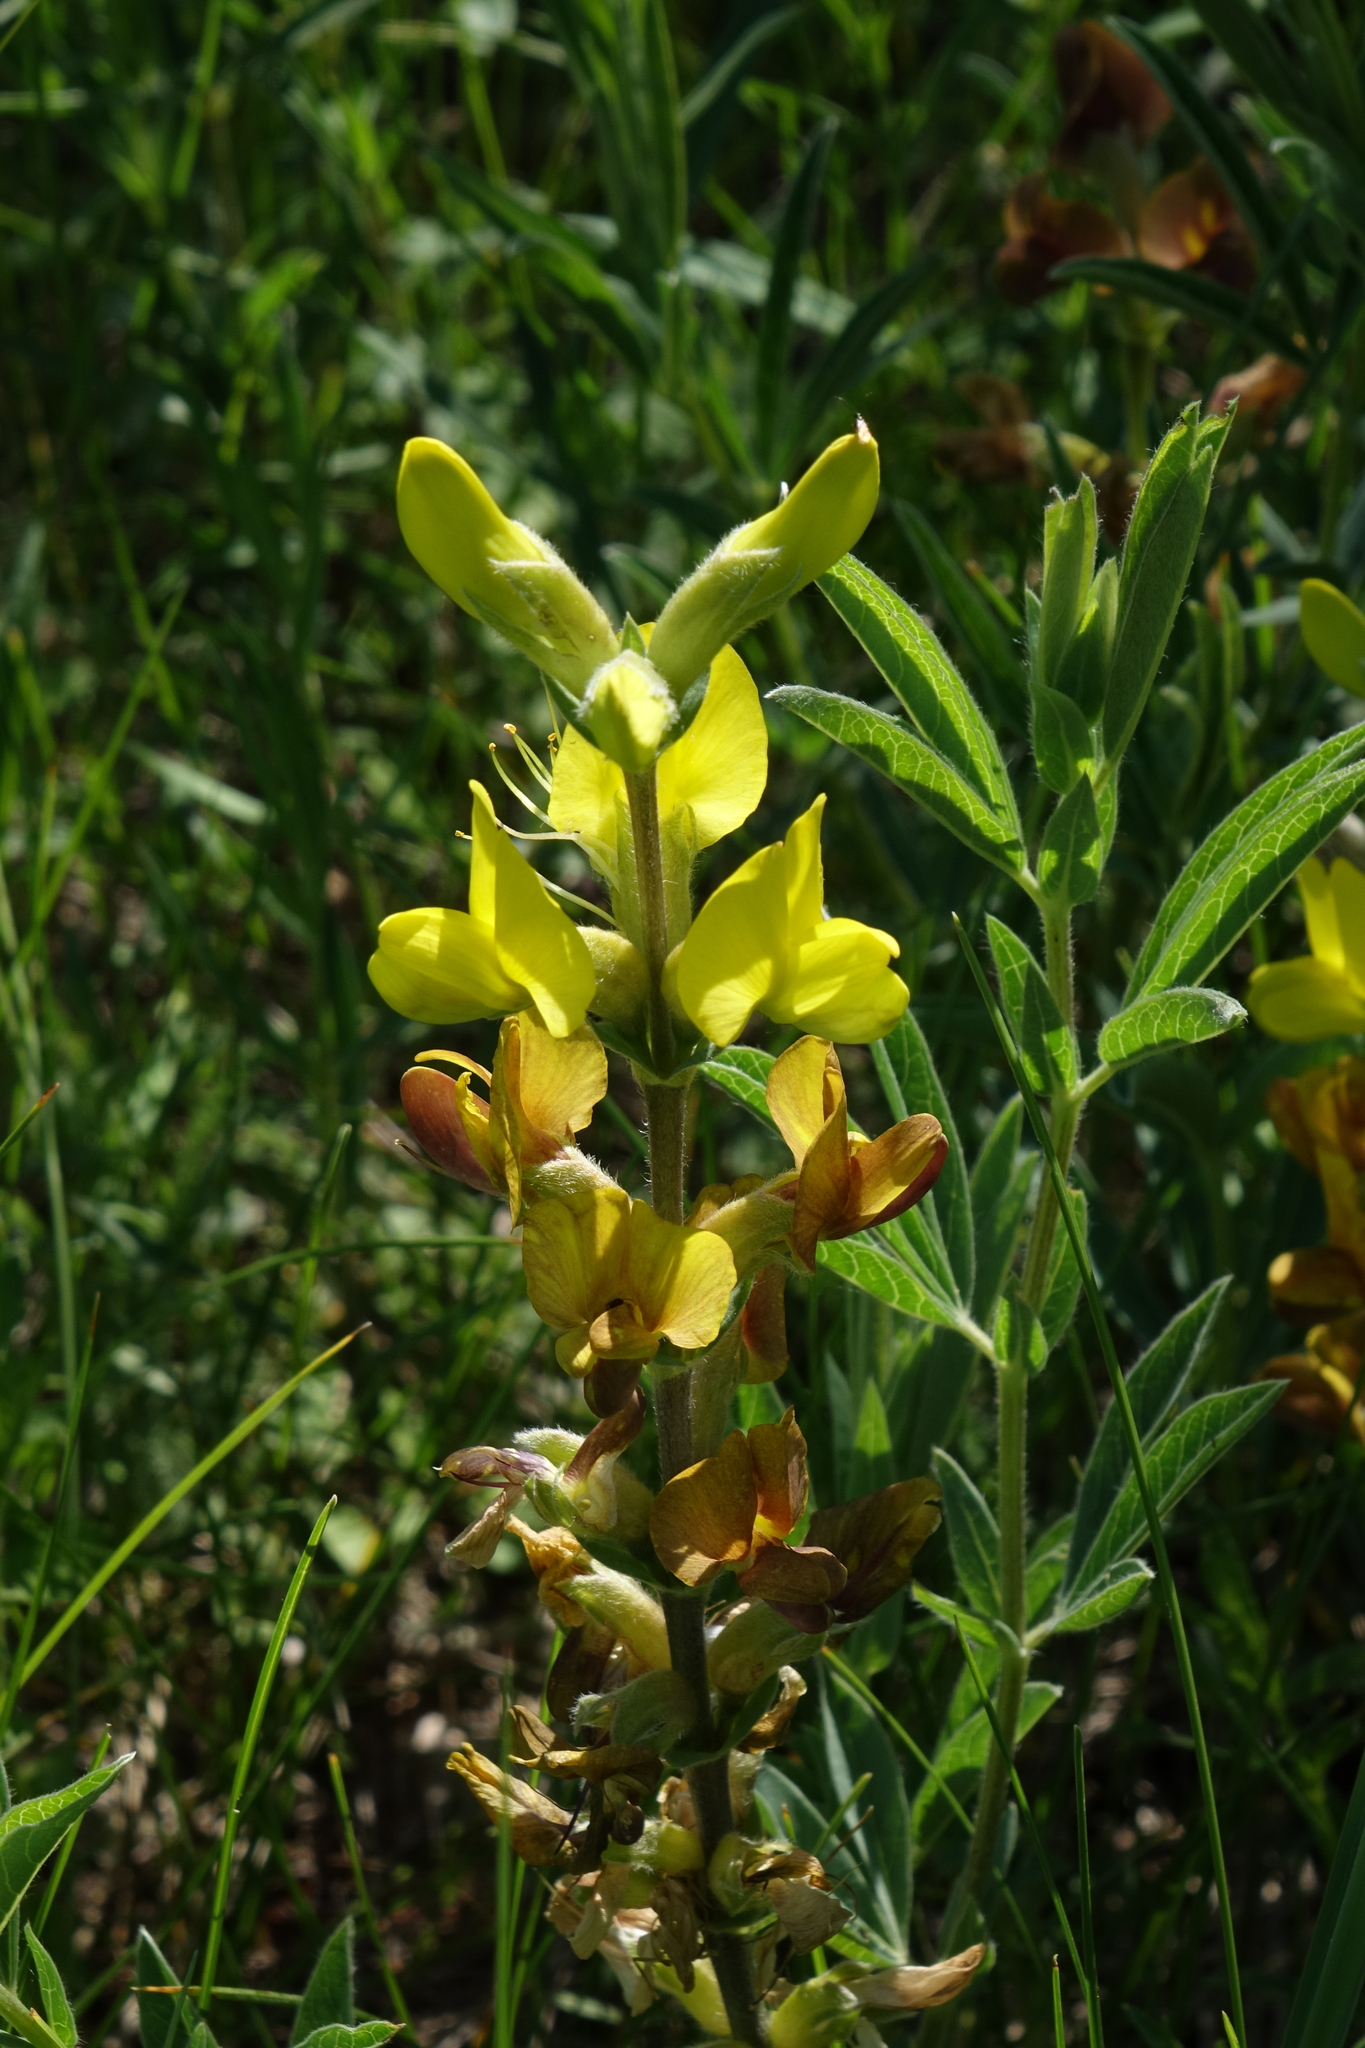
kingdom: Plantae
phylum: Tracheophyta
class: Magnoliopsida
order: Fabales
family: Fabaceae
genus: Thermopsis
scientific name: Thermopsis lanceolata
